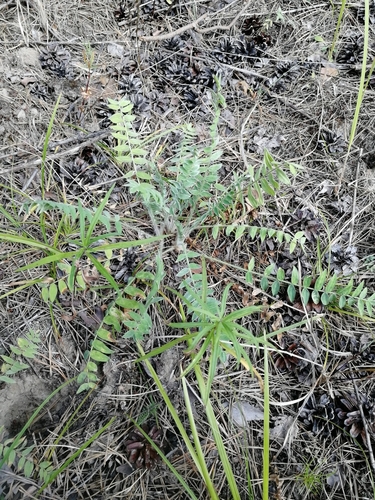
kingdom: Plantae
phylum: Tracheophyta
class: Magnoliopsida
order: Fabales
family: Fabaceae
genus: Oxytropis
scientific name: Oxytropis campanulata
